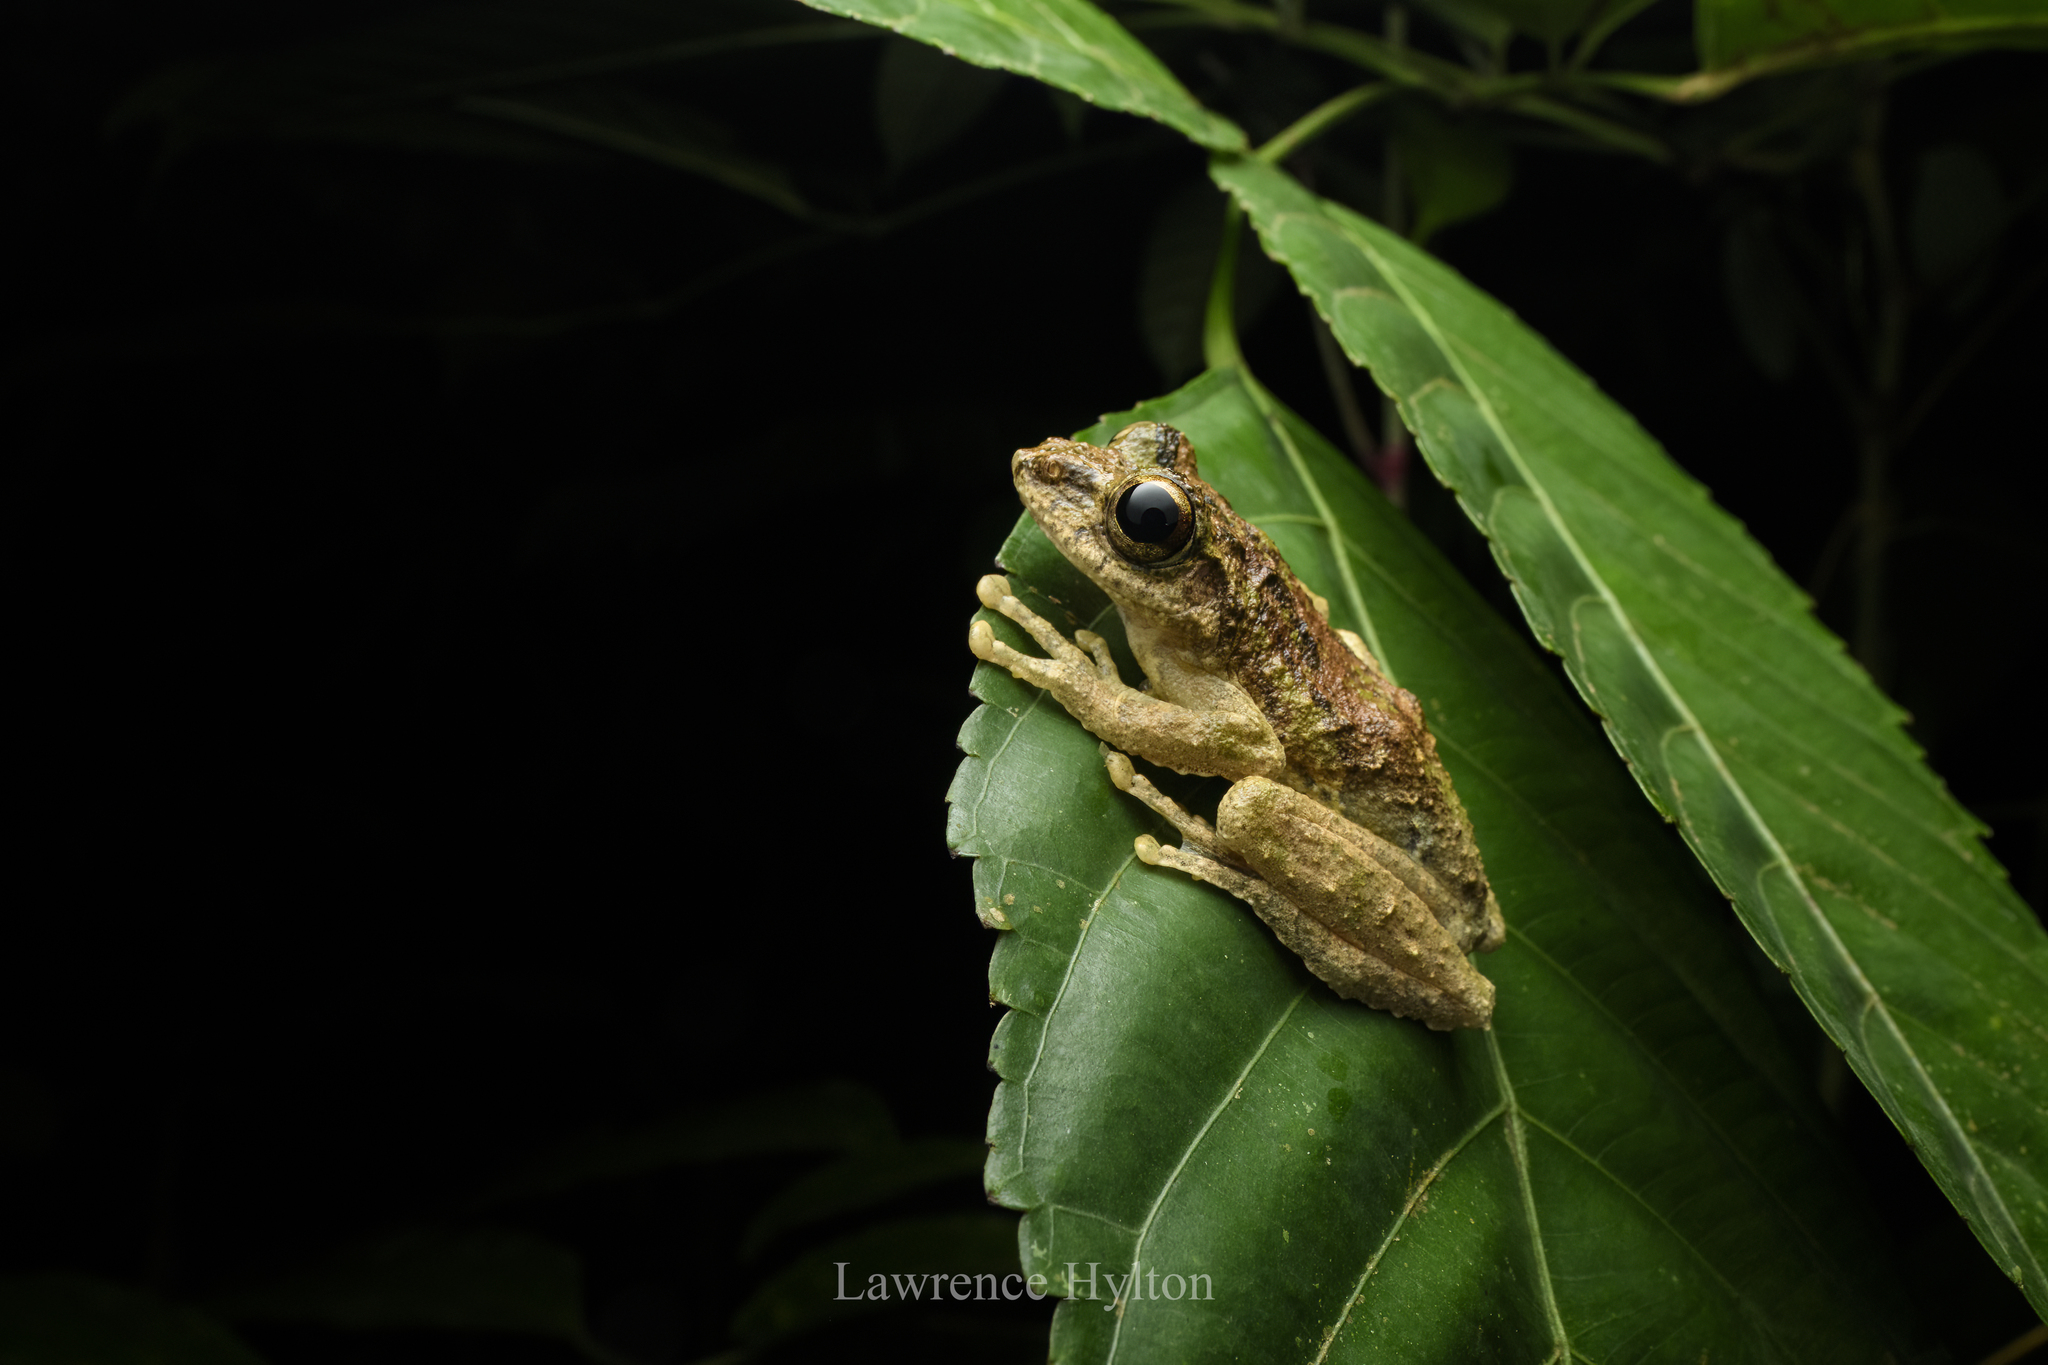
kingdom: Animalia
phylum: Chordata
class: Amphibia
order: Anura
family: Rhacophoridae
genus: Kurixalus
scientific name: Kurixalus chaseni
